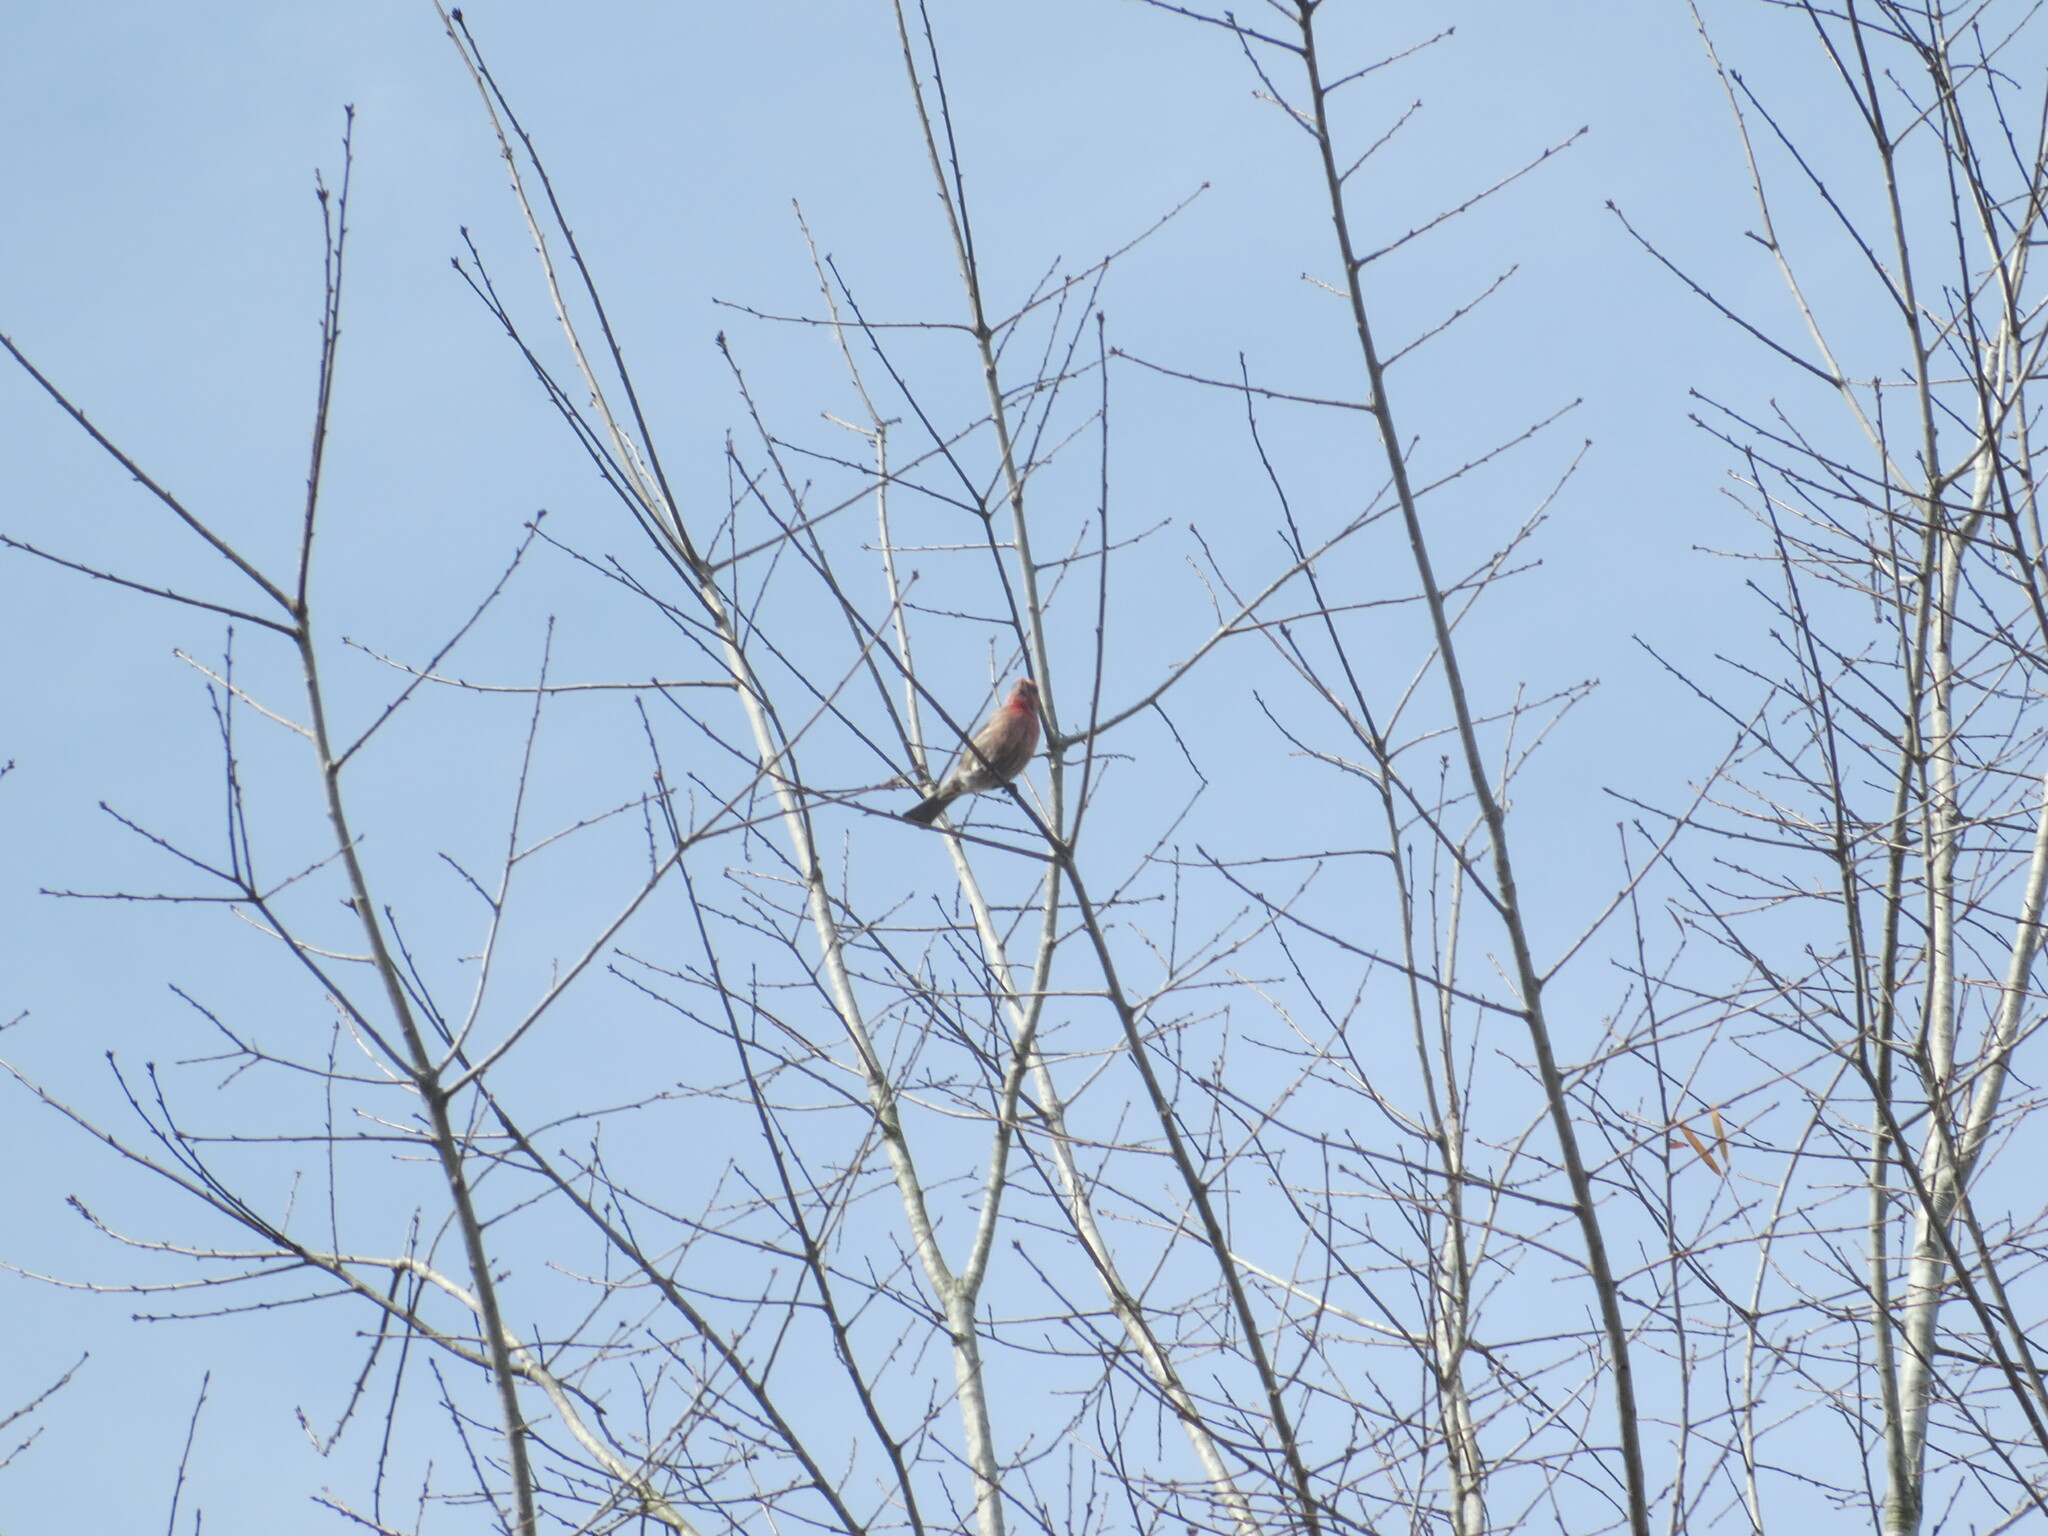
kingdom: Animalia
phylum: Chordata
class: Aves
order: Passeriformes
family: Fringillidae
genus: Haemorhous
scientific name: Haemorhous mexicanus
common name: House finch
